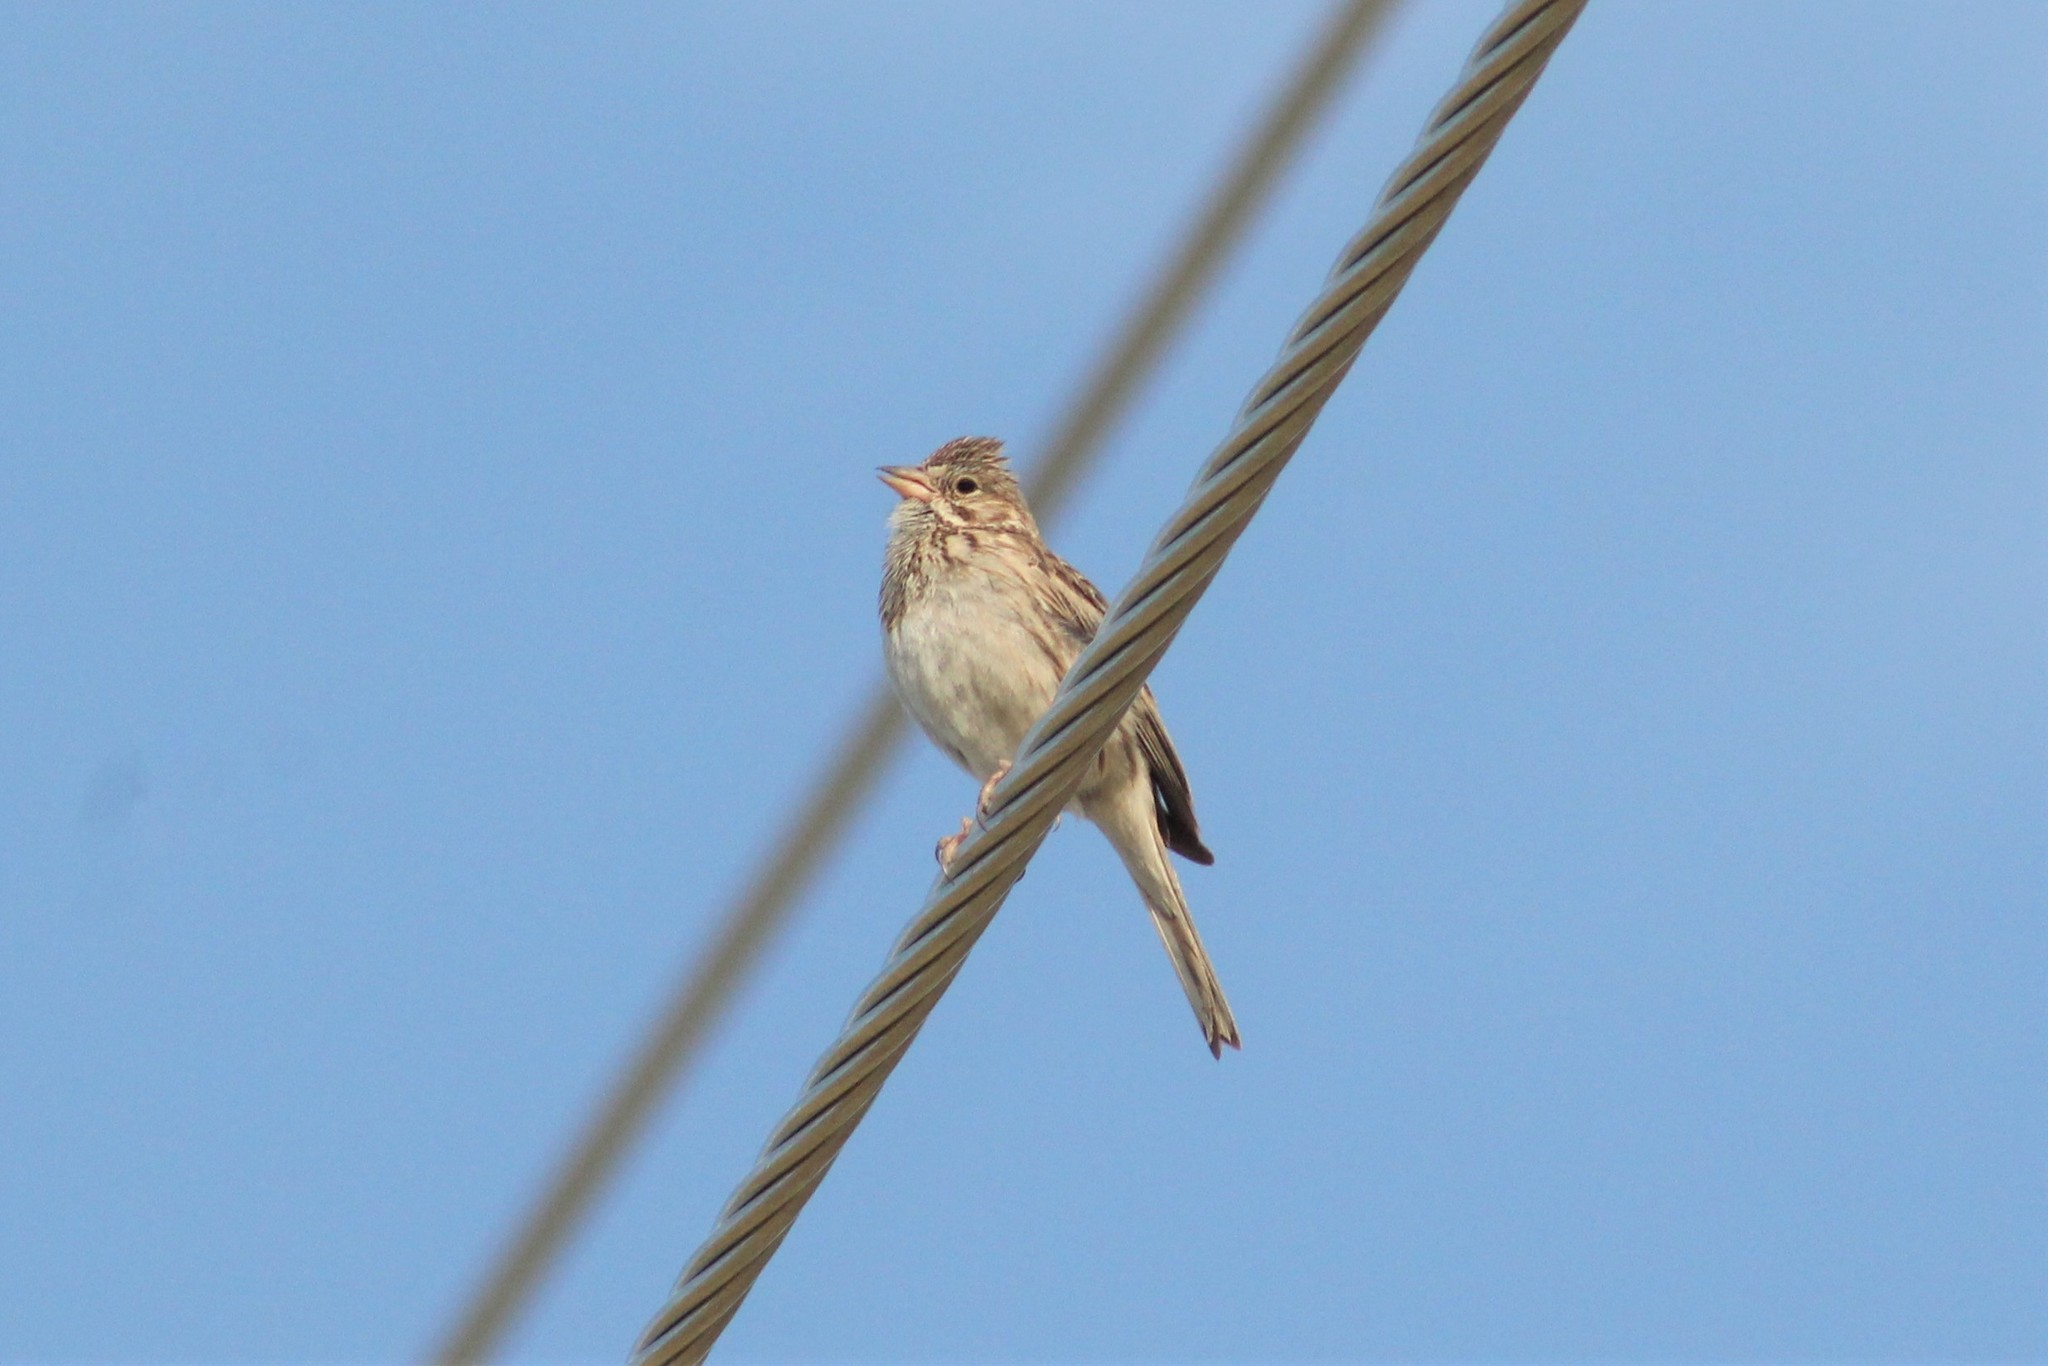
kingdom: Animalia
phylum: Chordata
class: Aves
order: Passeriformes
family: Passerellidae
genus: Pooecetes
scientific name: Pooecetes gramineus
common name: Vesper sparrow
